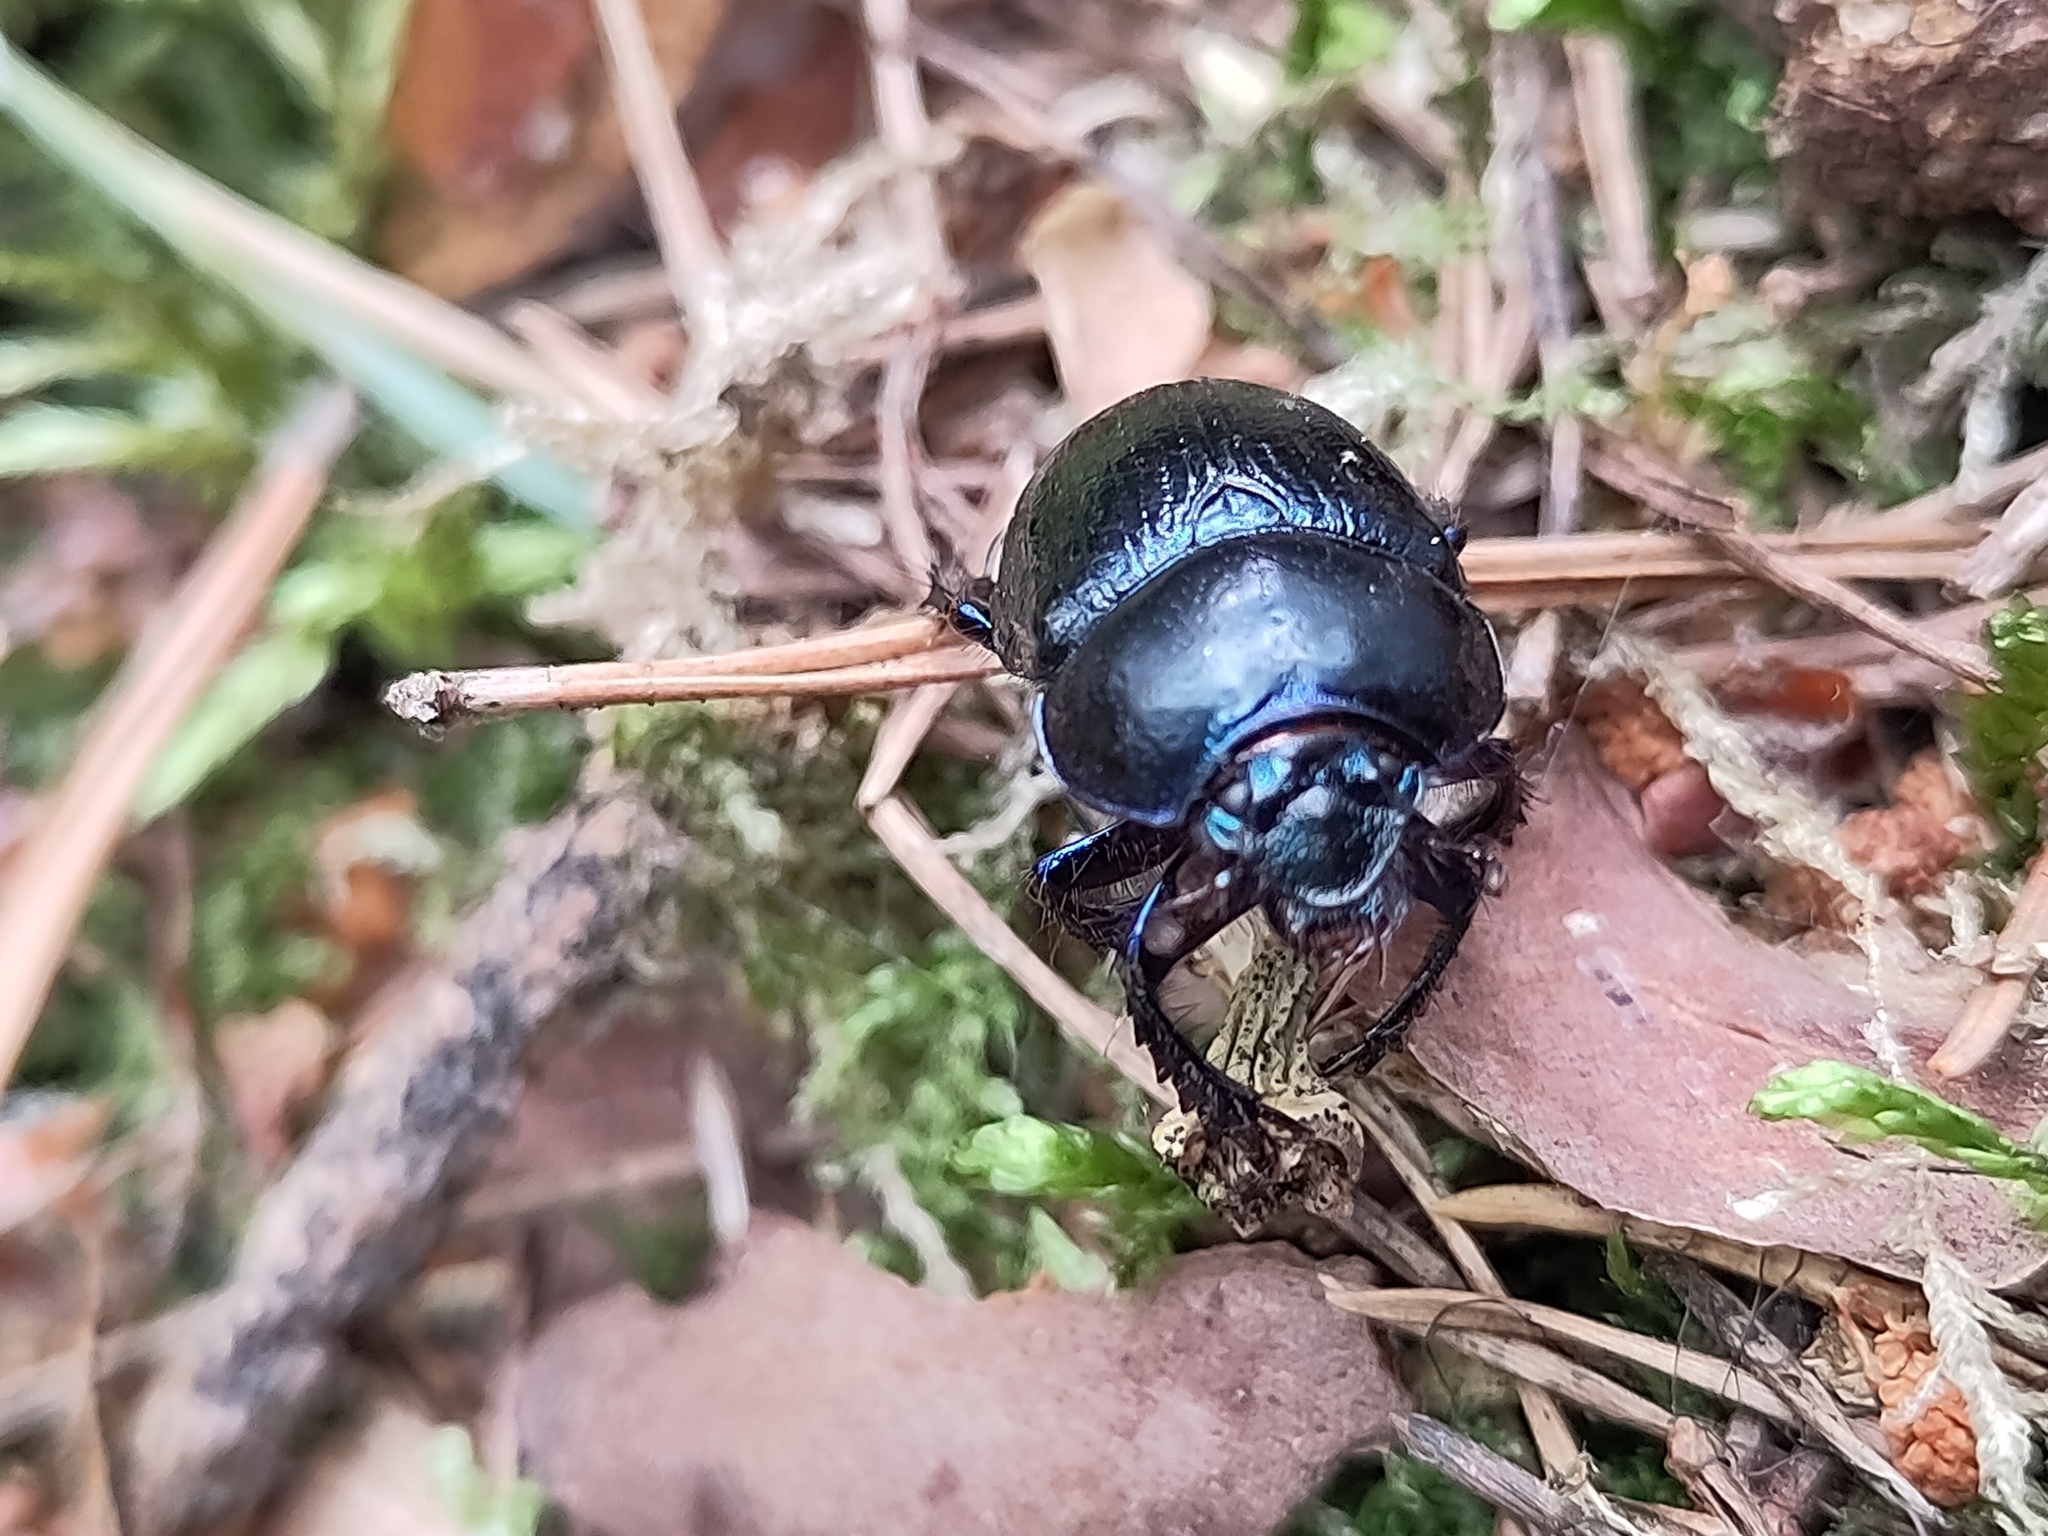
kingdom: Animalia
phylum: Arthropoda
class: Insecta
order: Coleoptera
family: Geotrupidae
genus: Anoplotrupes
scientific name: Anoplotrupes stercorosus
